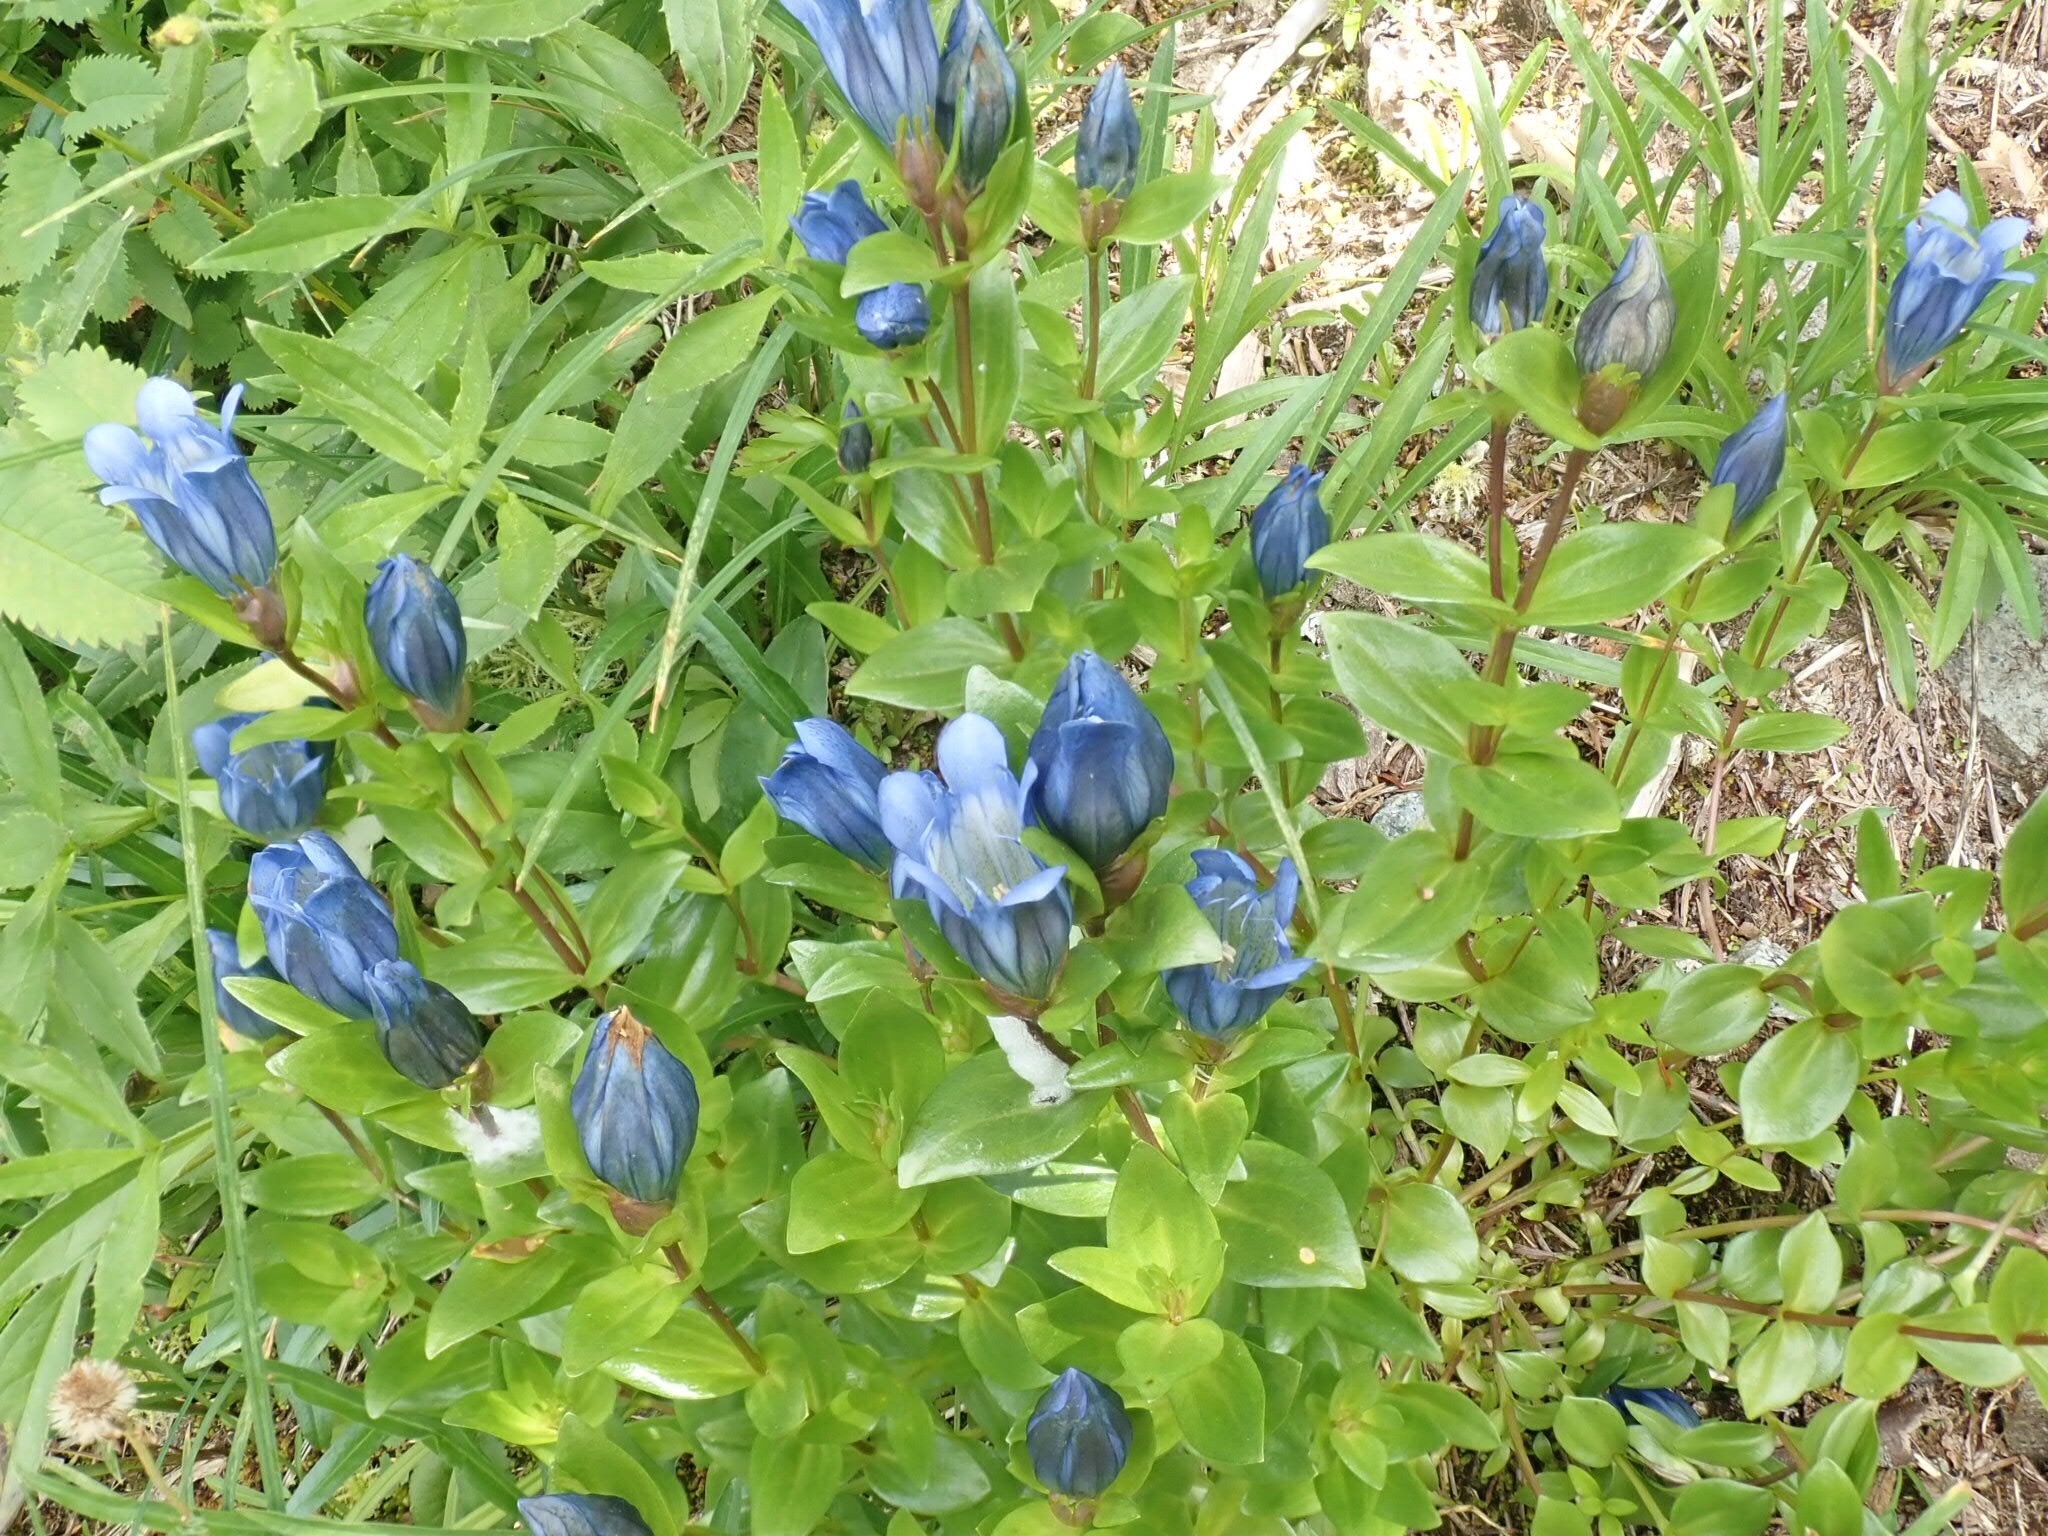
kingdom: Plantae
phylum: Tracheophyta
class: Magnoliopsida
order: Gentianales
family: Gentianaceae
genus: Gentiana
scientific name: Gentiana calycosa
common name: Rainier pleated gentian
